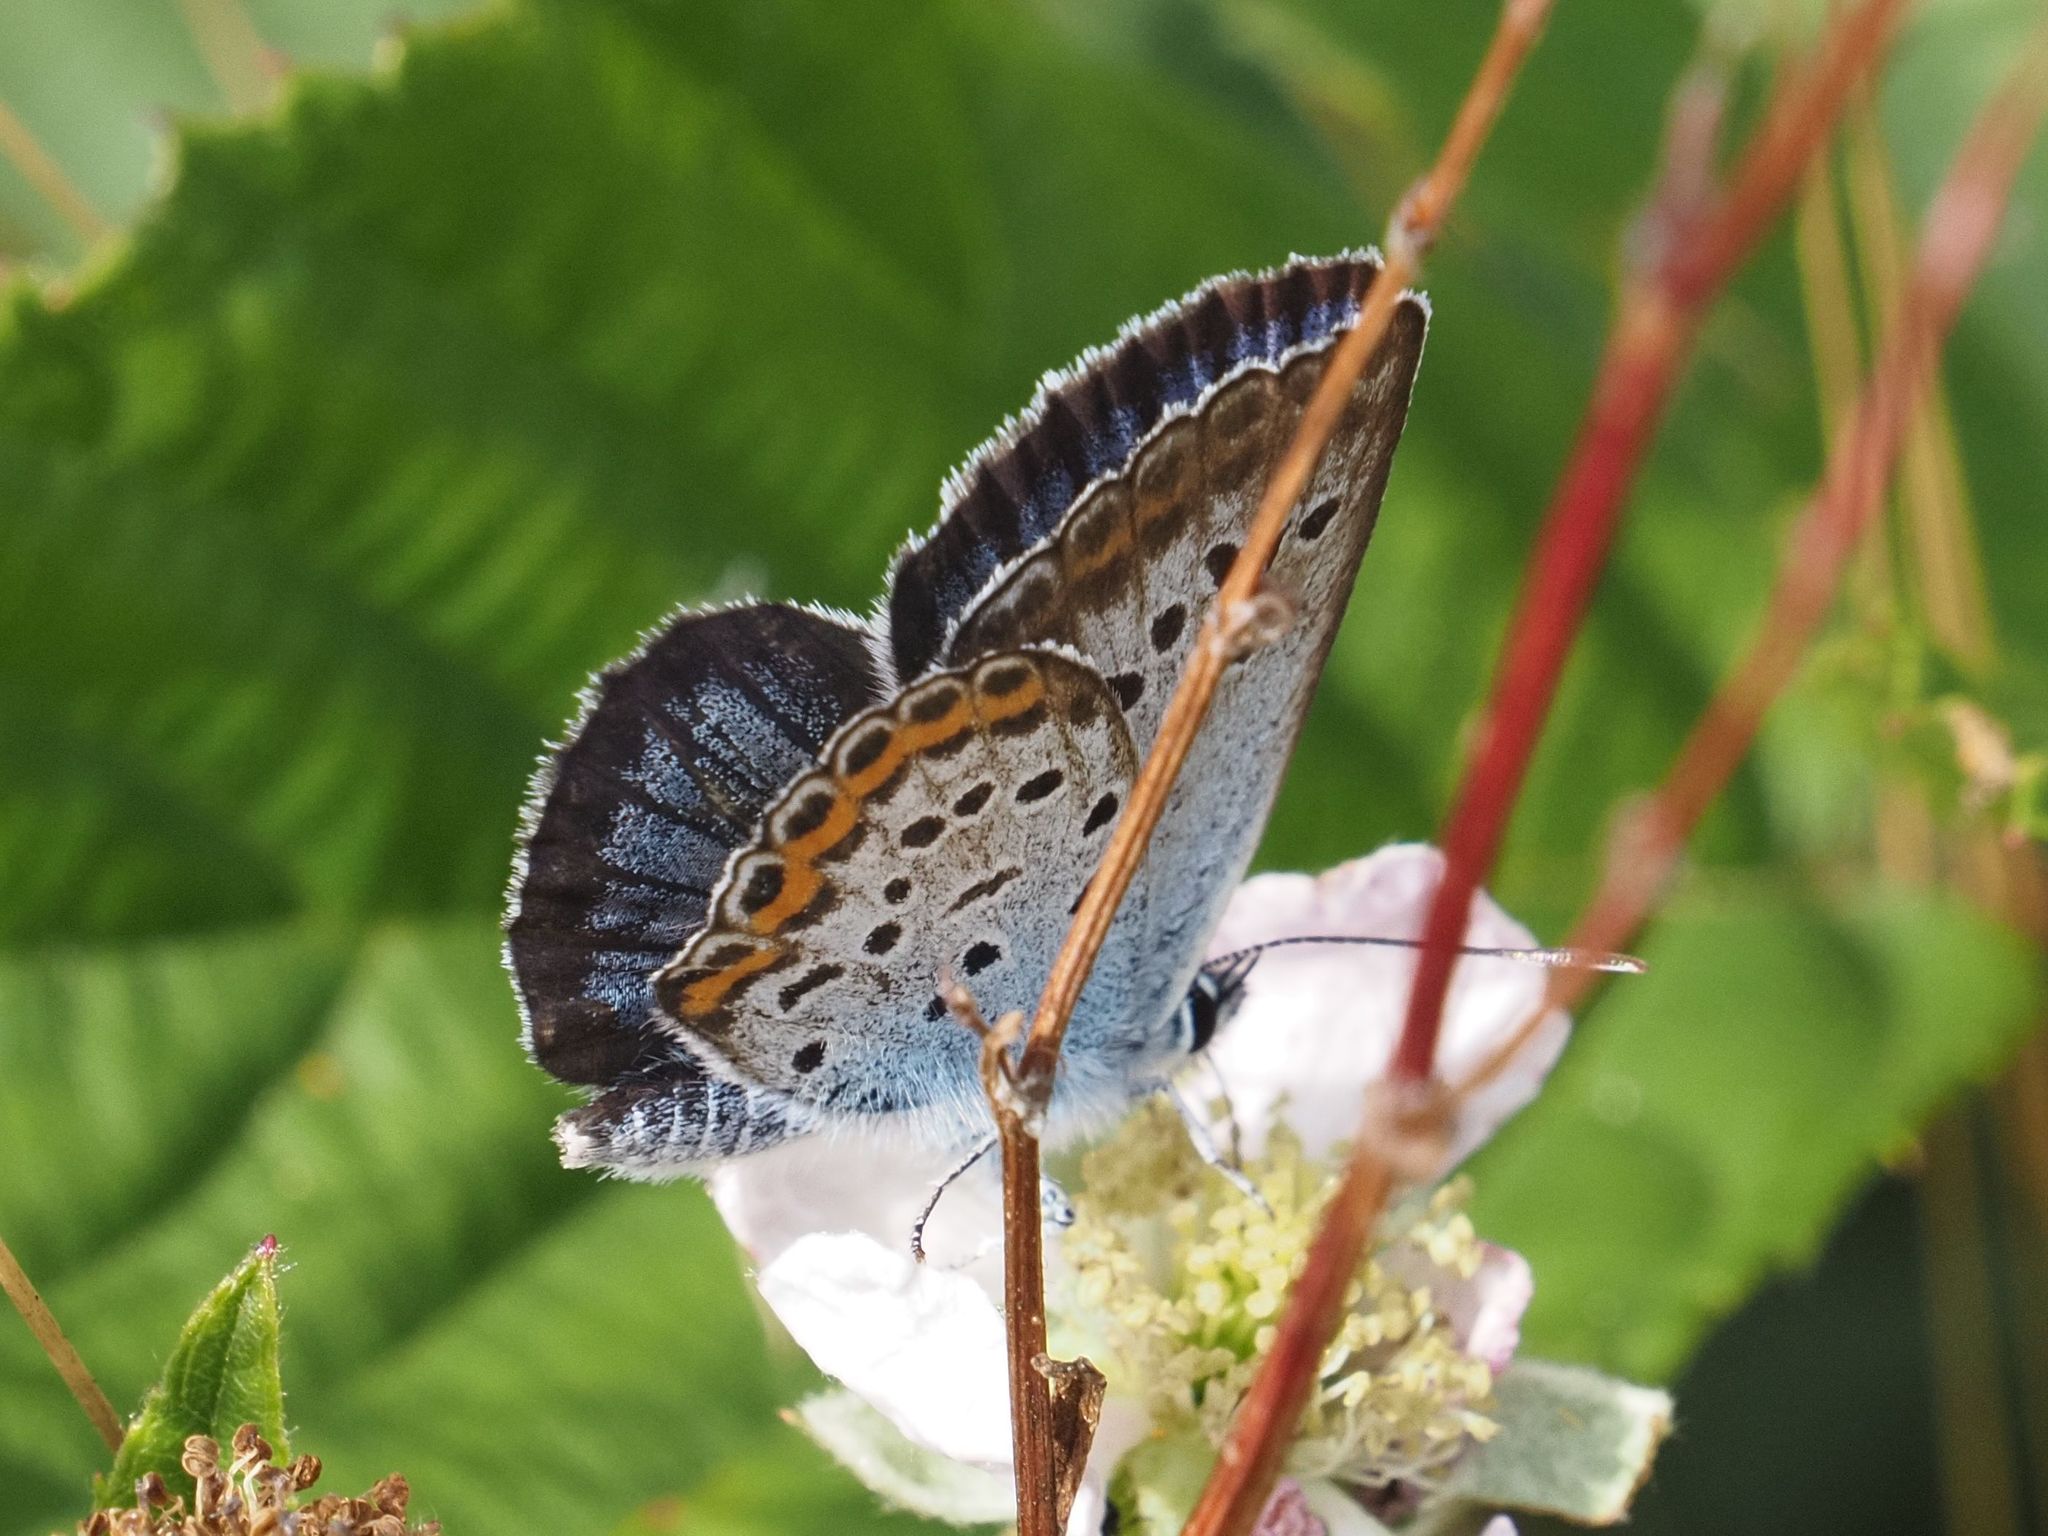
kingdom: Animalia
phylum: Arthropoda
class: Insecta
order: Lepidoptera
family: Lycaenidae
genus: Plebejus
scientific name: Plebejus argus
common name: Silver-studded blue
